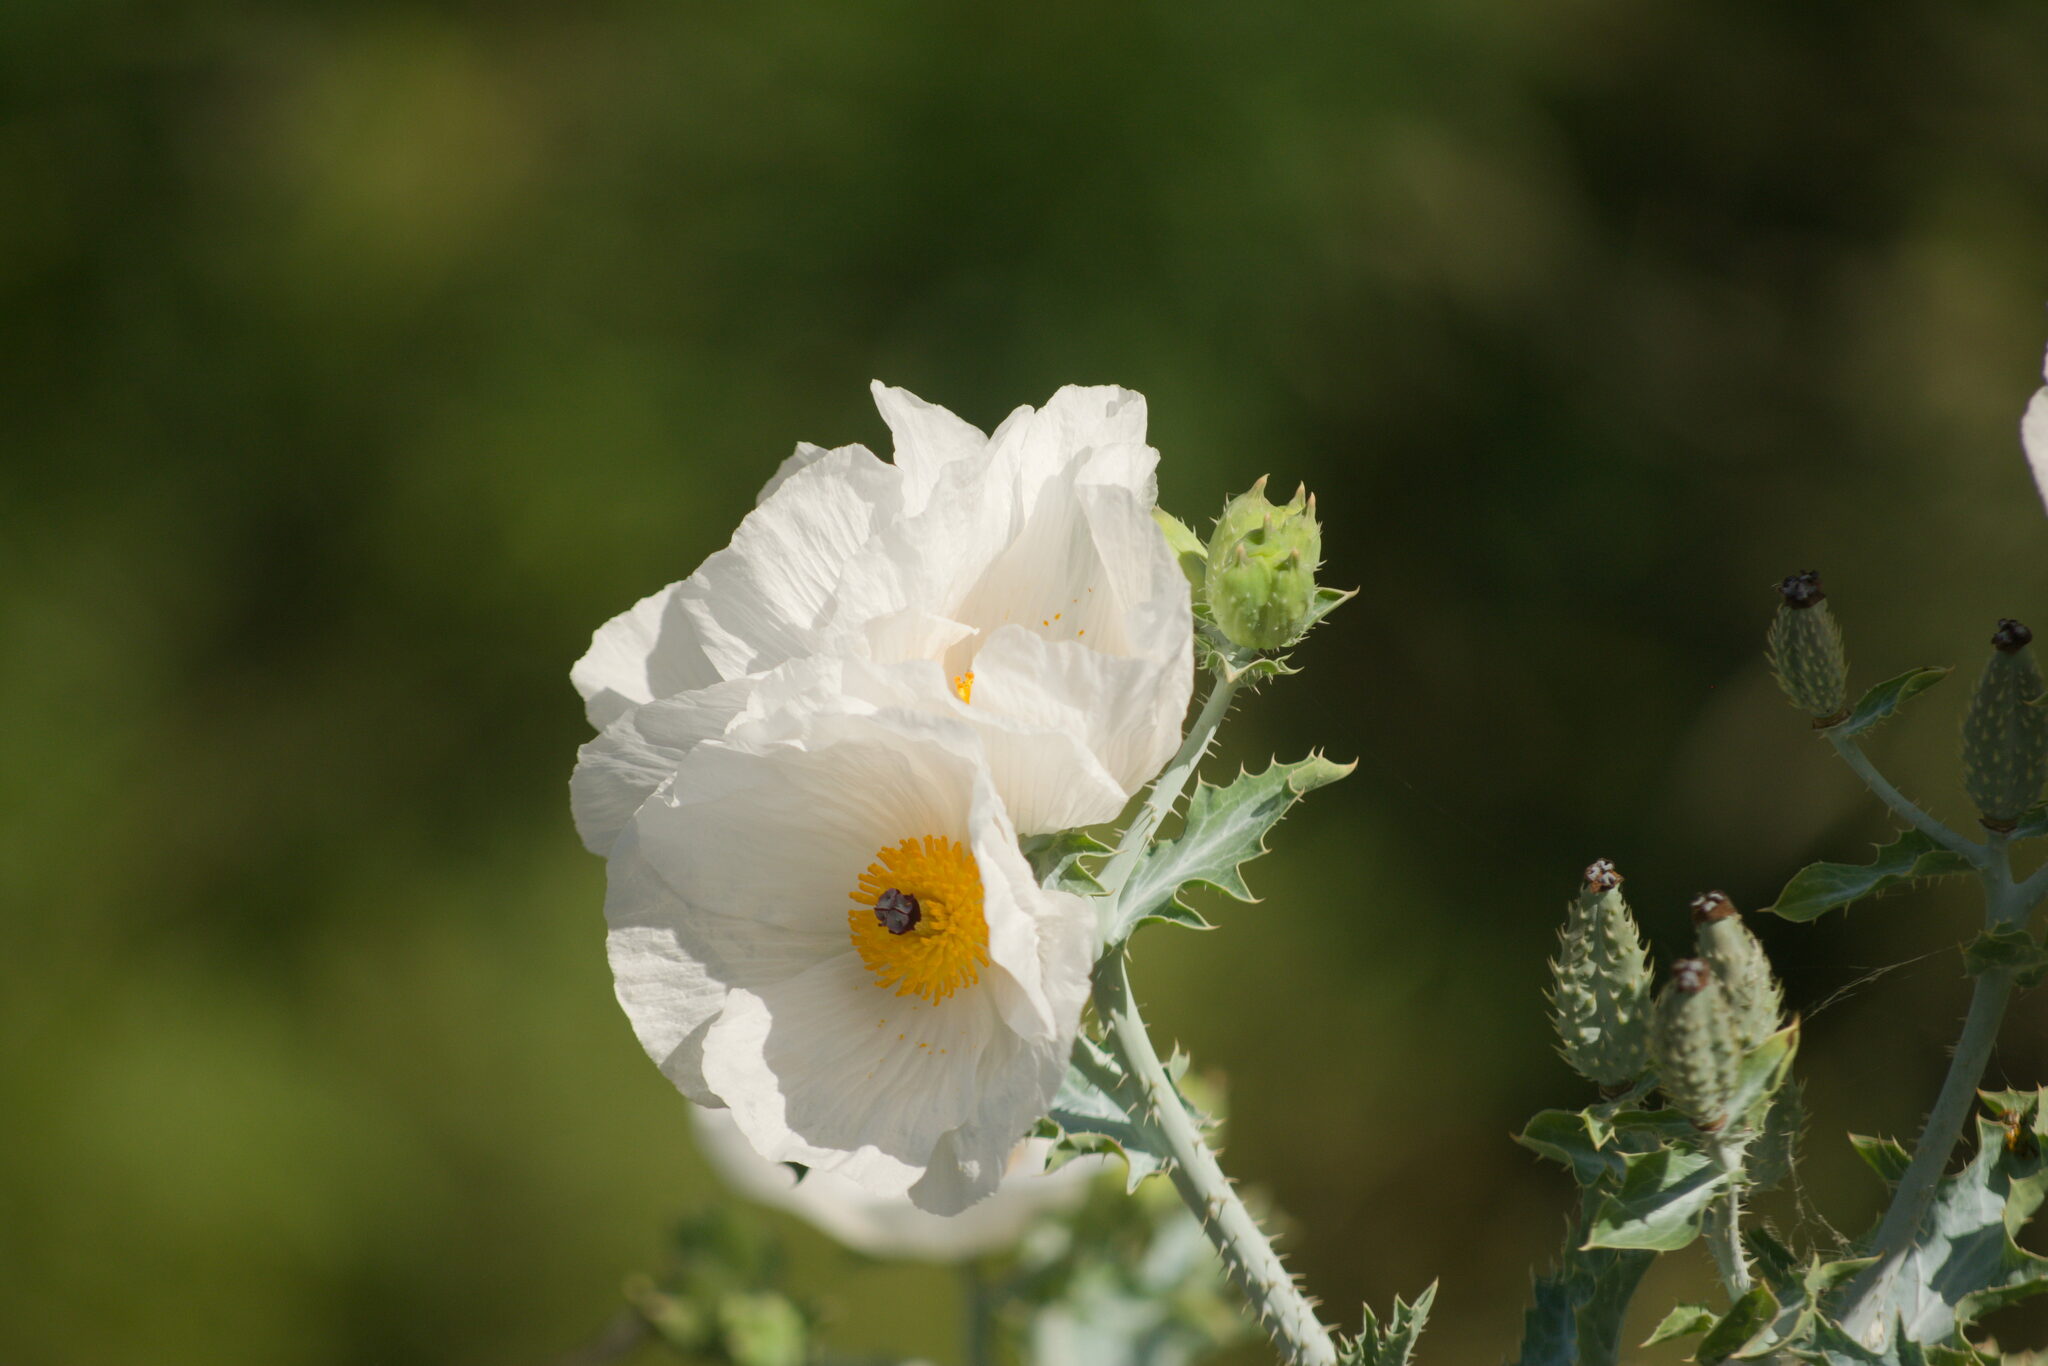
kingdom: Plantae
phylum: Tracheophyta
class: Magnoliopsida
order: Ranunculales
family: Papaveraceae
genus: Argemone
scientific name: Argemone glauca
